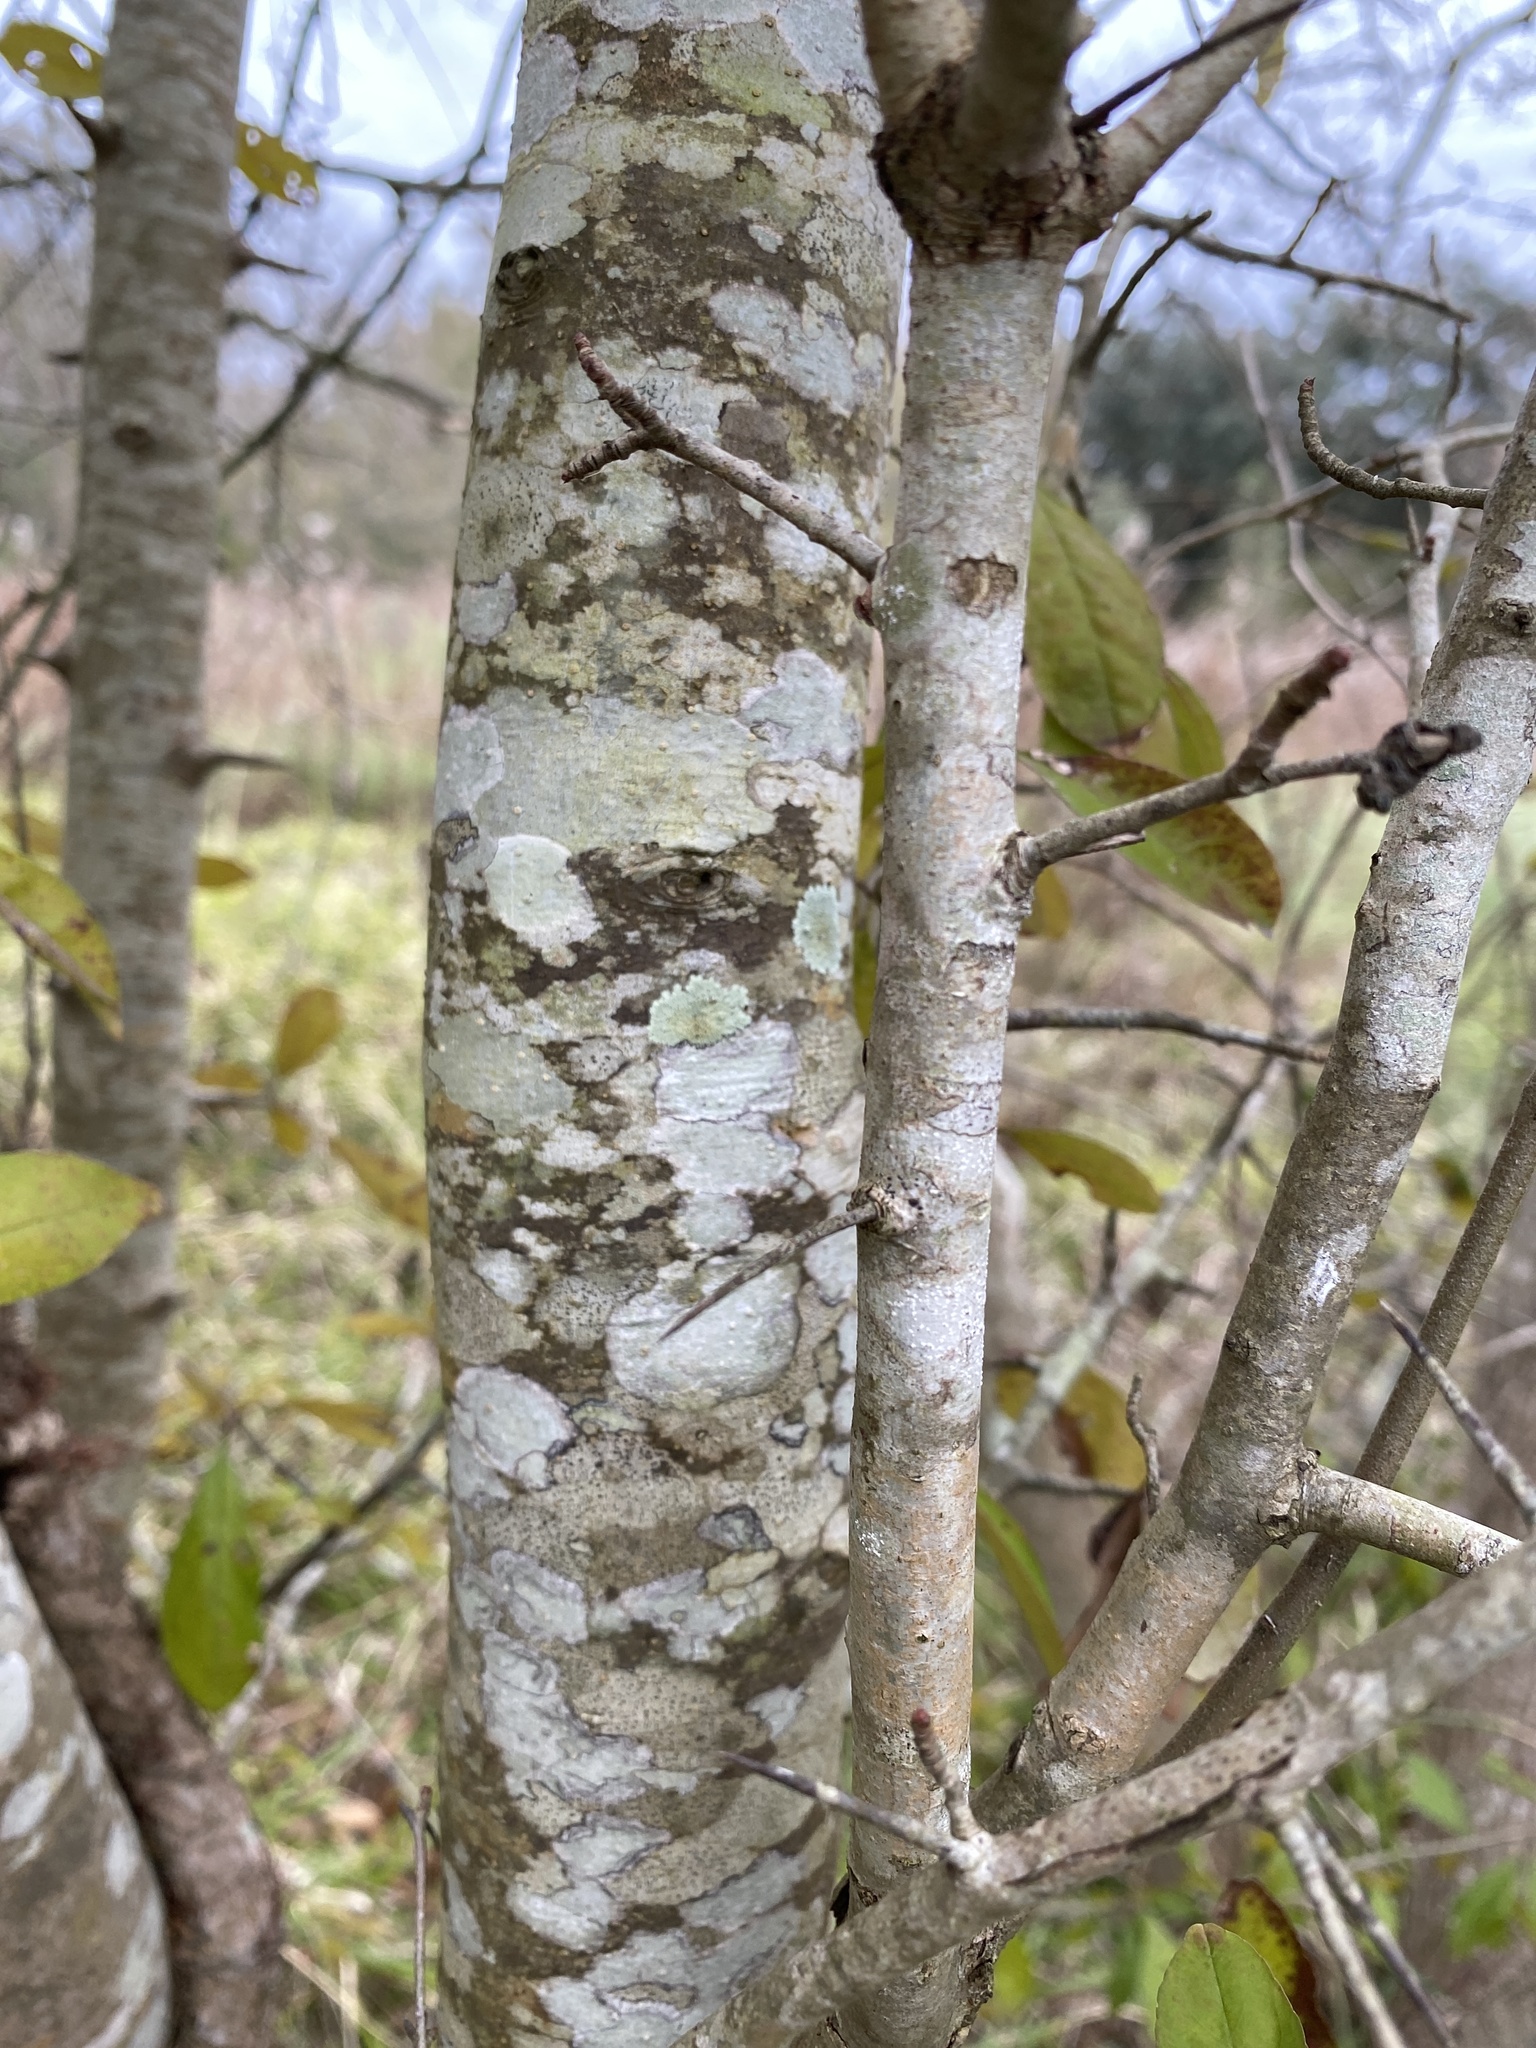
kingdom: Plantae
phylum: Tracheophyta
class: Magnoliopsida
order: Aquifoliales
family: Aquifoliaceae
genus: Ilex
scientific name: Ilex decidua
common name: Possum-haw
